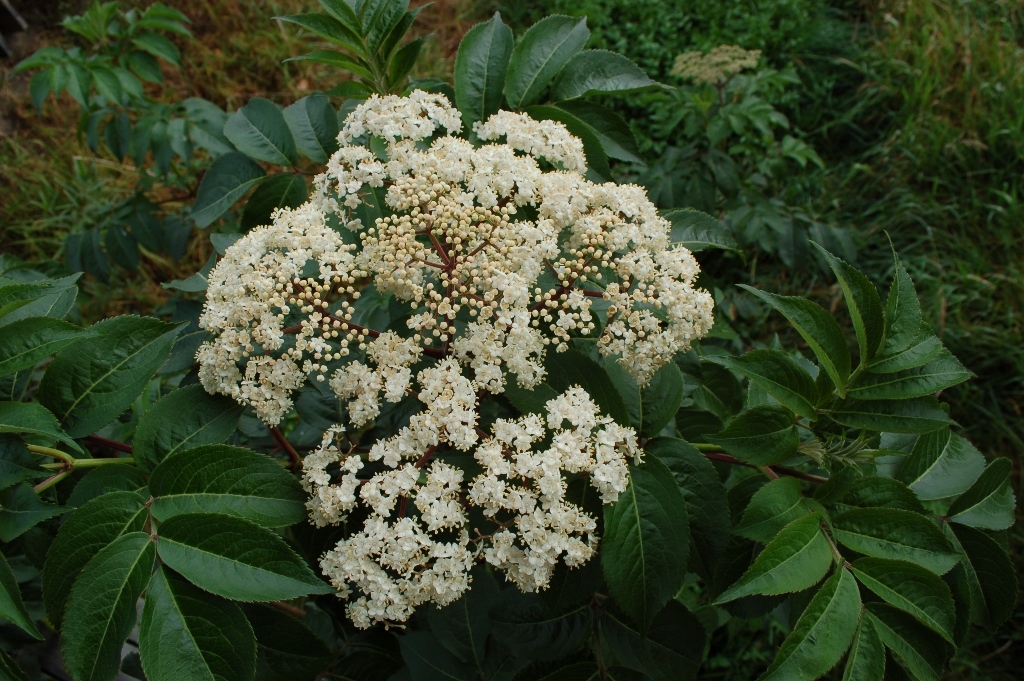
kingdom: Plantae
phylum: Tracheophyta
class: Magnoliopsida
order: Dipsacales
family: Viburnaceae
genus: Sambucus
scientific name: Sambucus canadensis
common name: American elder
